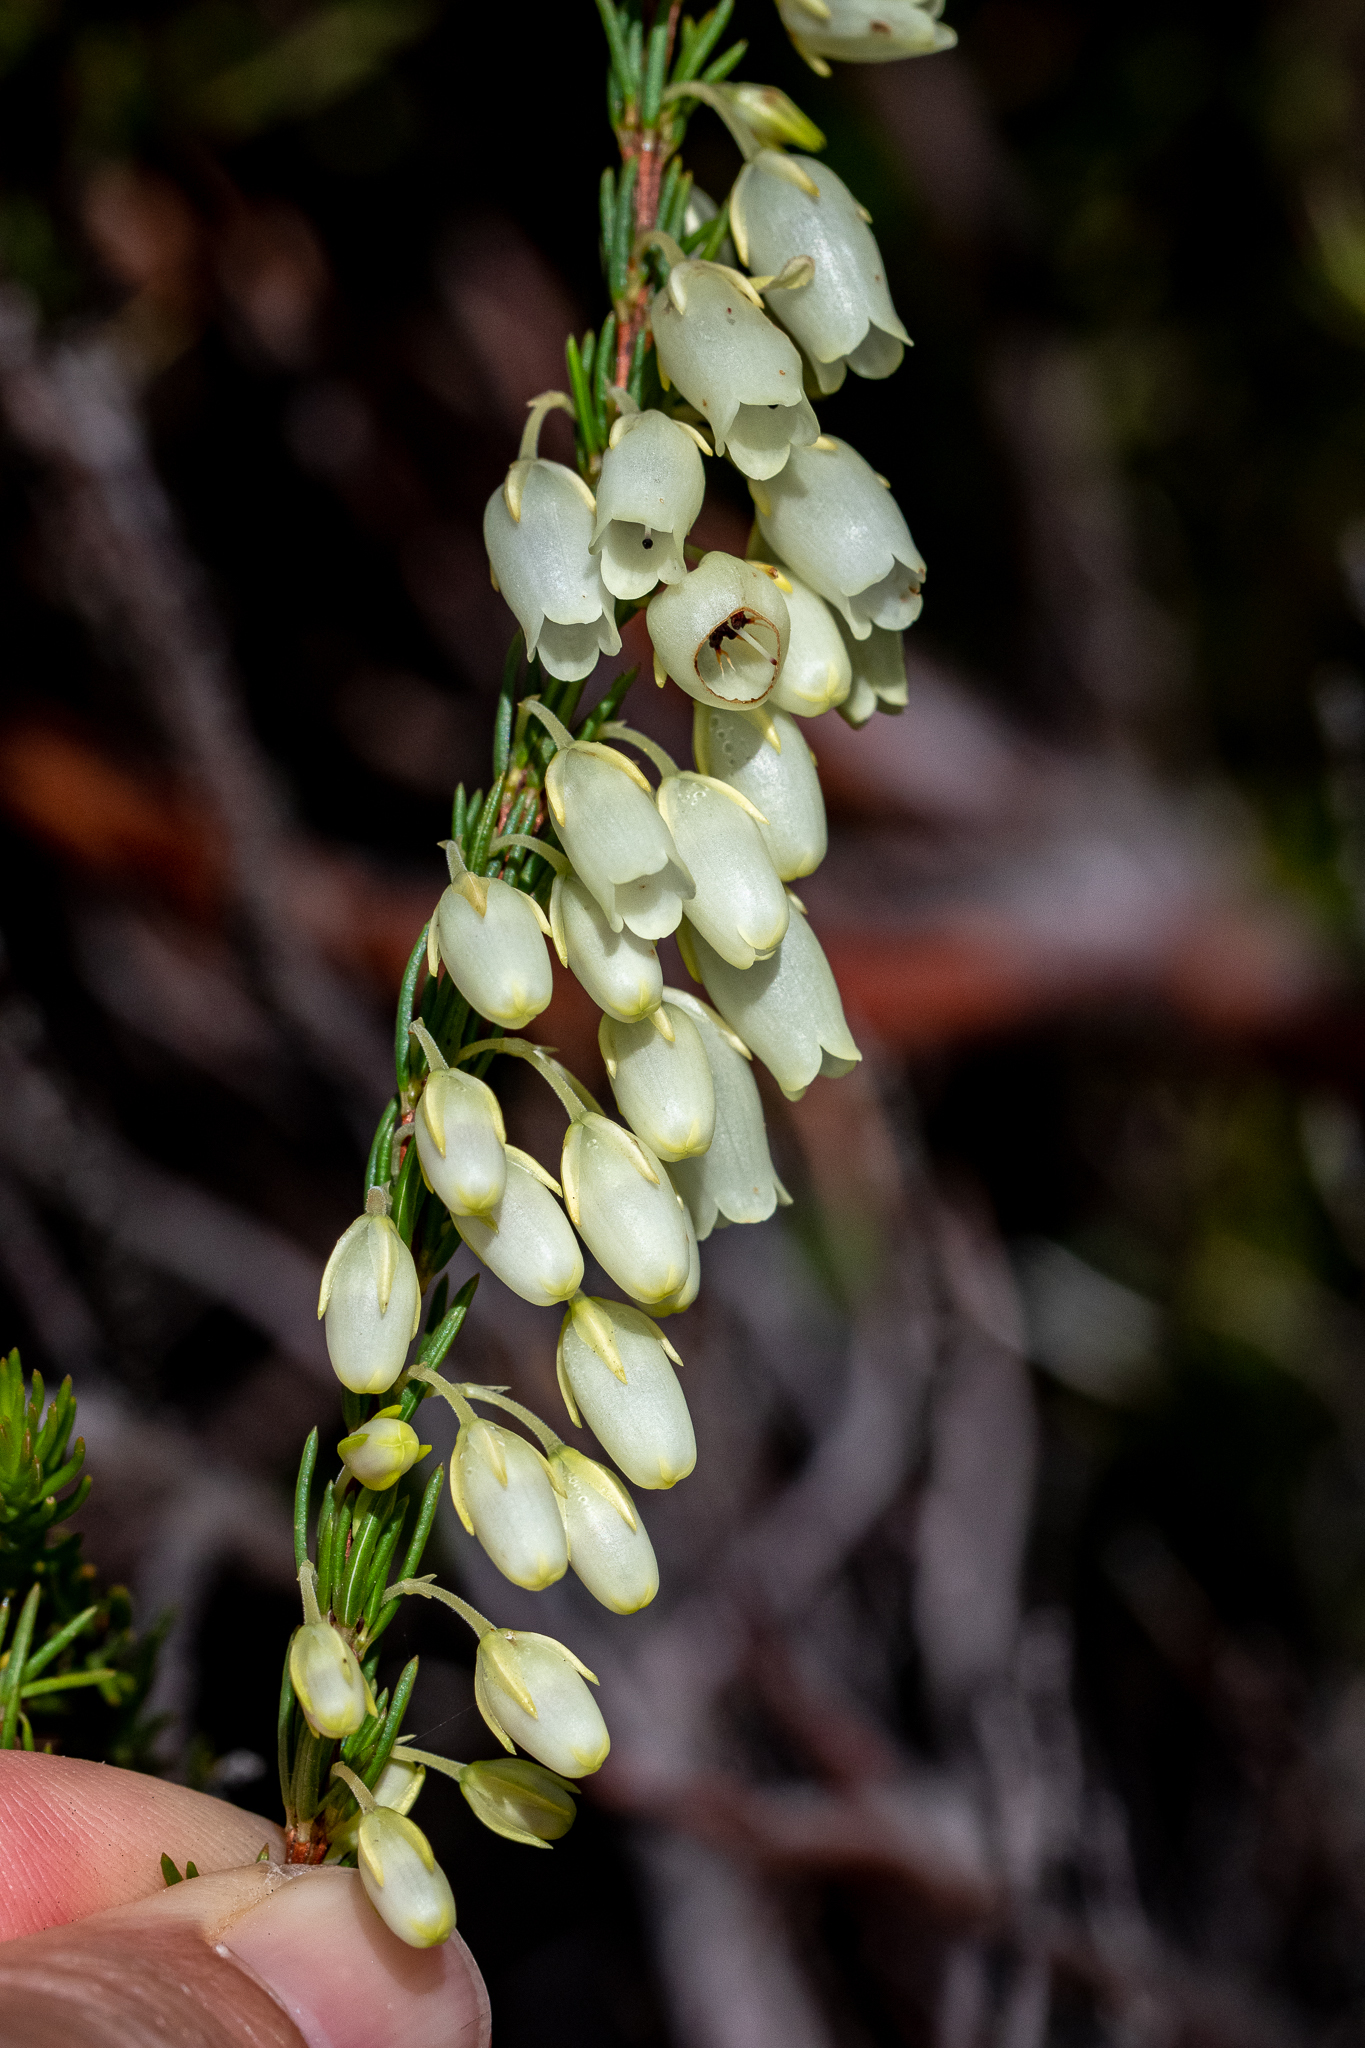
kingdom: Plantae
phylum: Tracheophyta
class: Magnoliopsida
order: Ericales
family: Ericaceae
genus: Erica
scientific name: Erica filipendula
